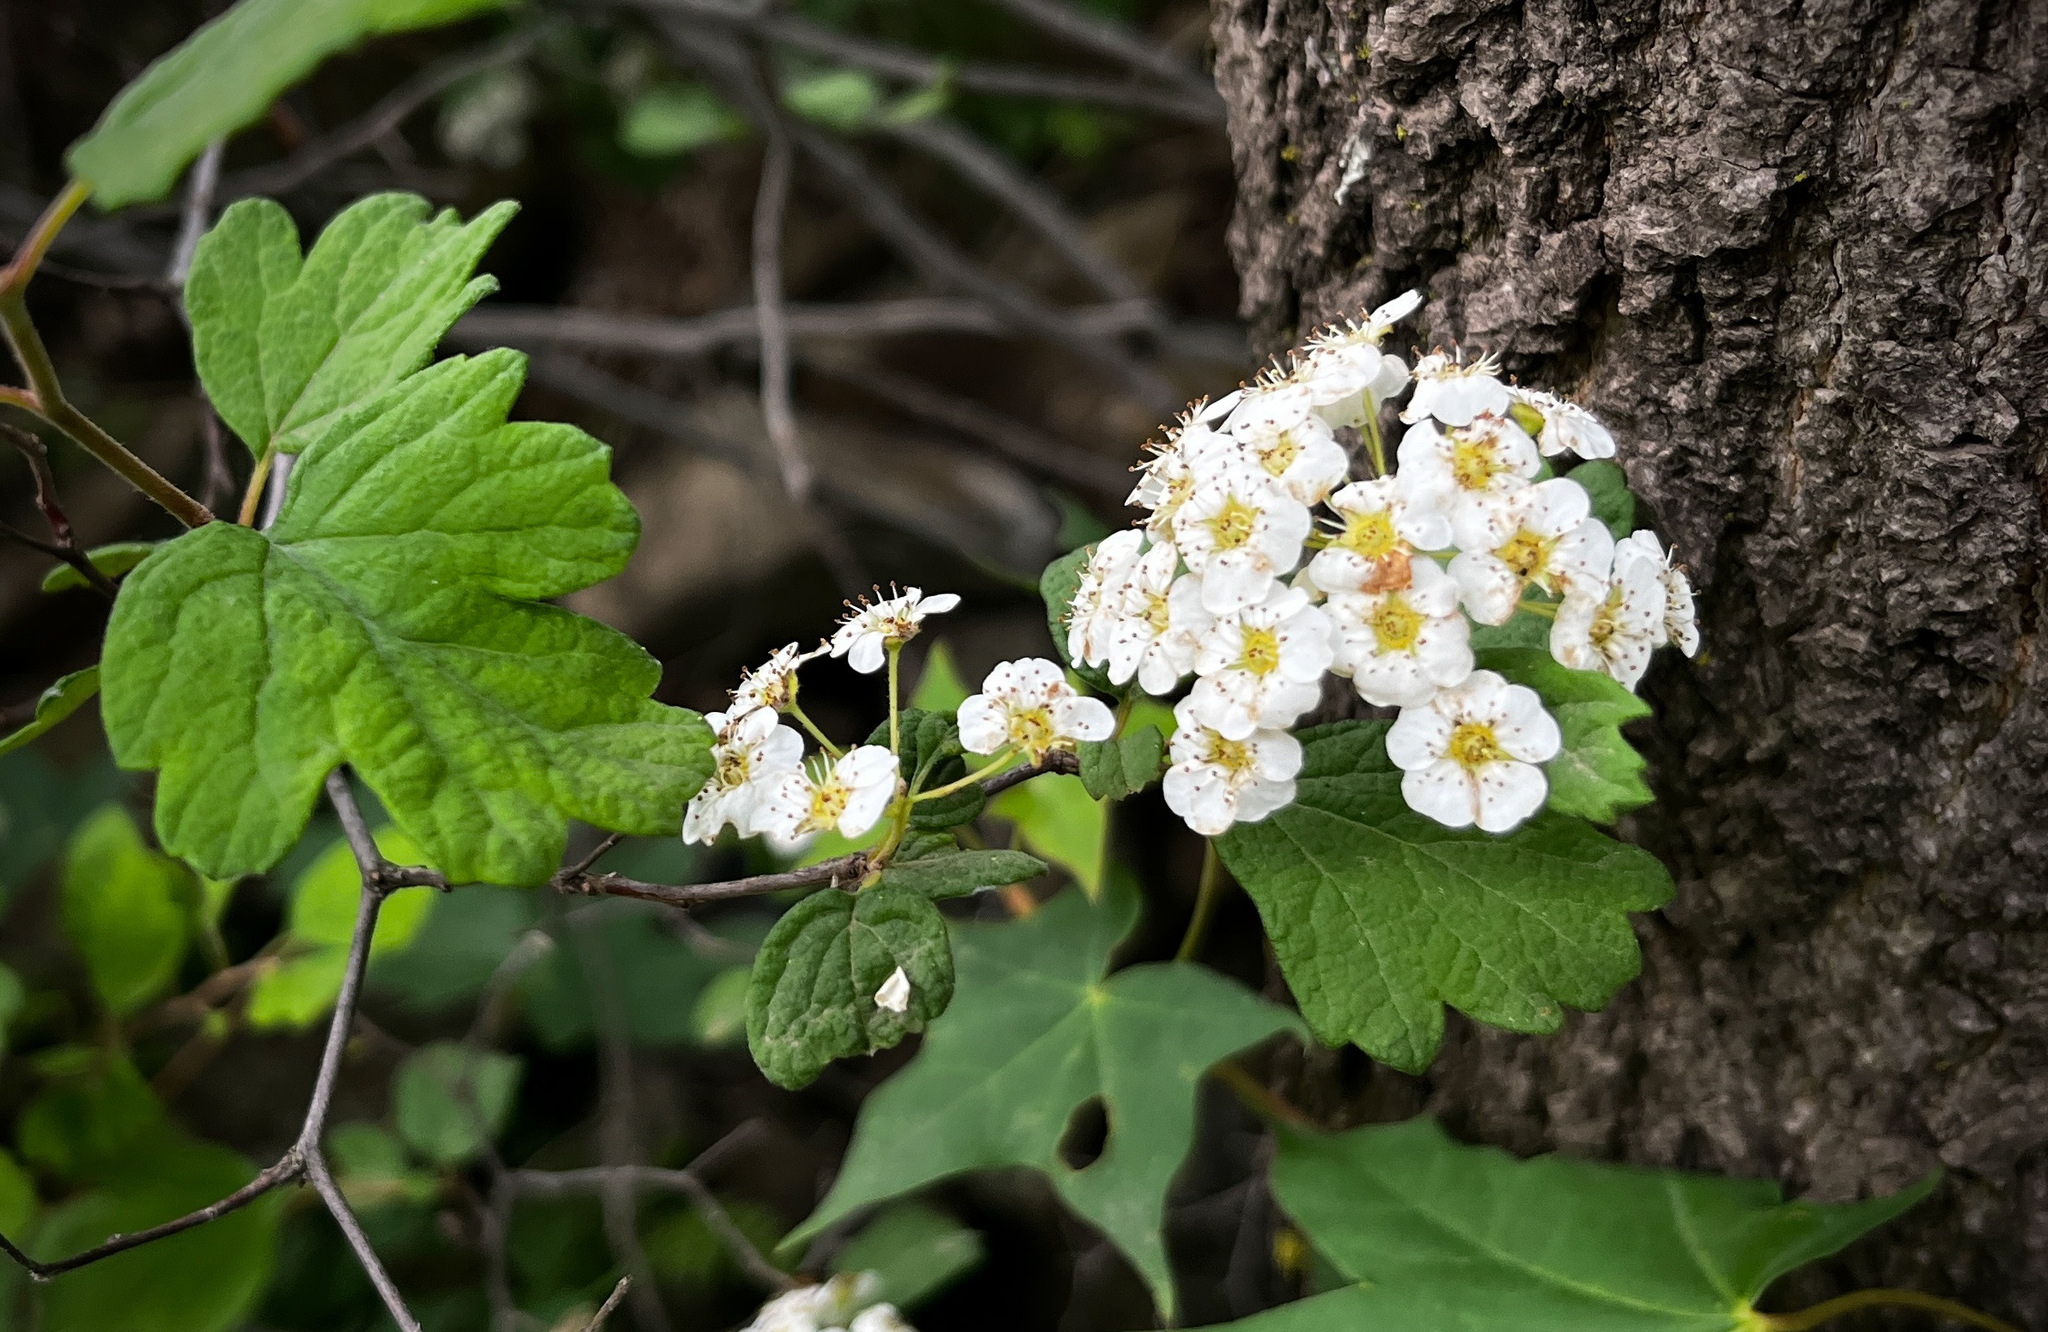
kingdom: Plantae
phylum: Tracheophyta
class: Magnoliopsida
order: Rosales
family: Rosaceae
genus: Spiraea
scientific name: Spiraea trilobata
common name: Asian meadowsweet
